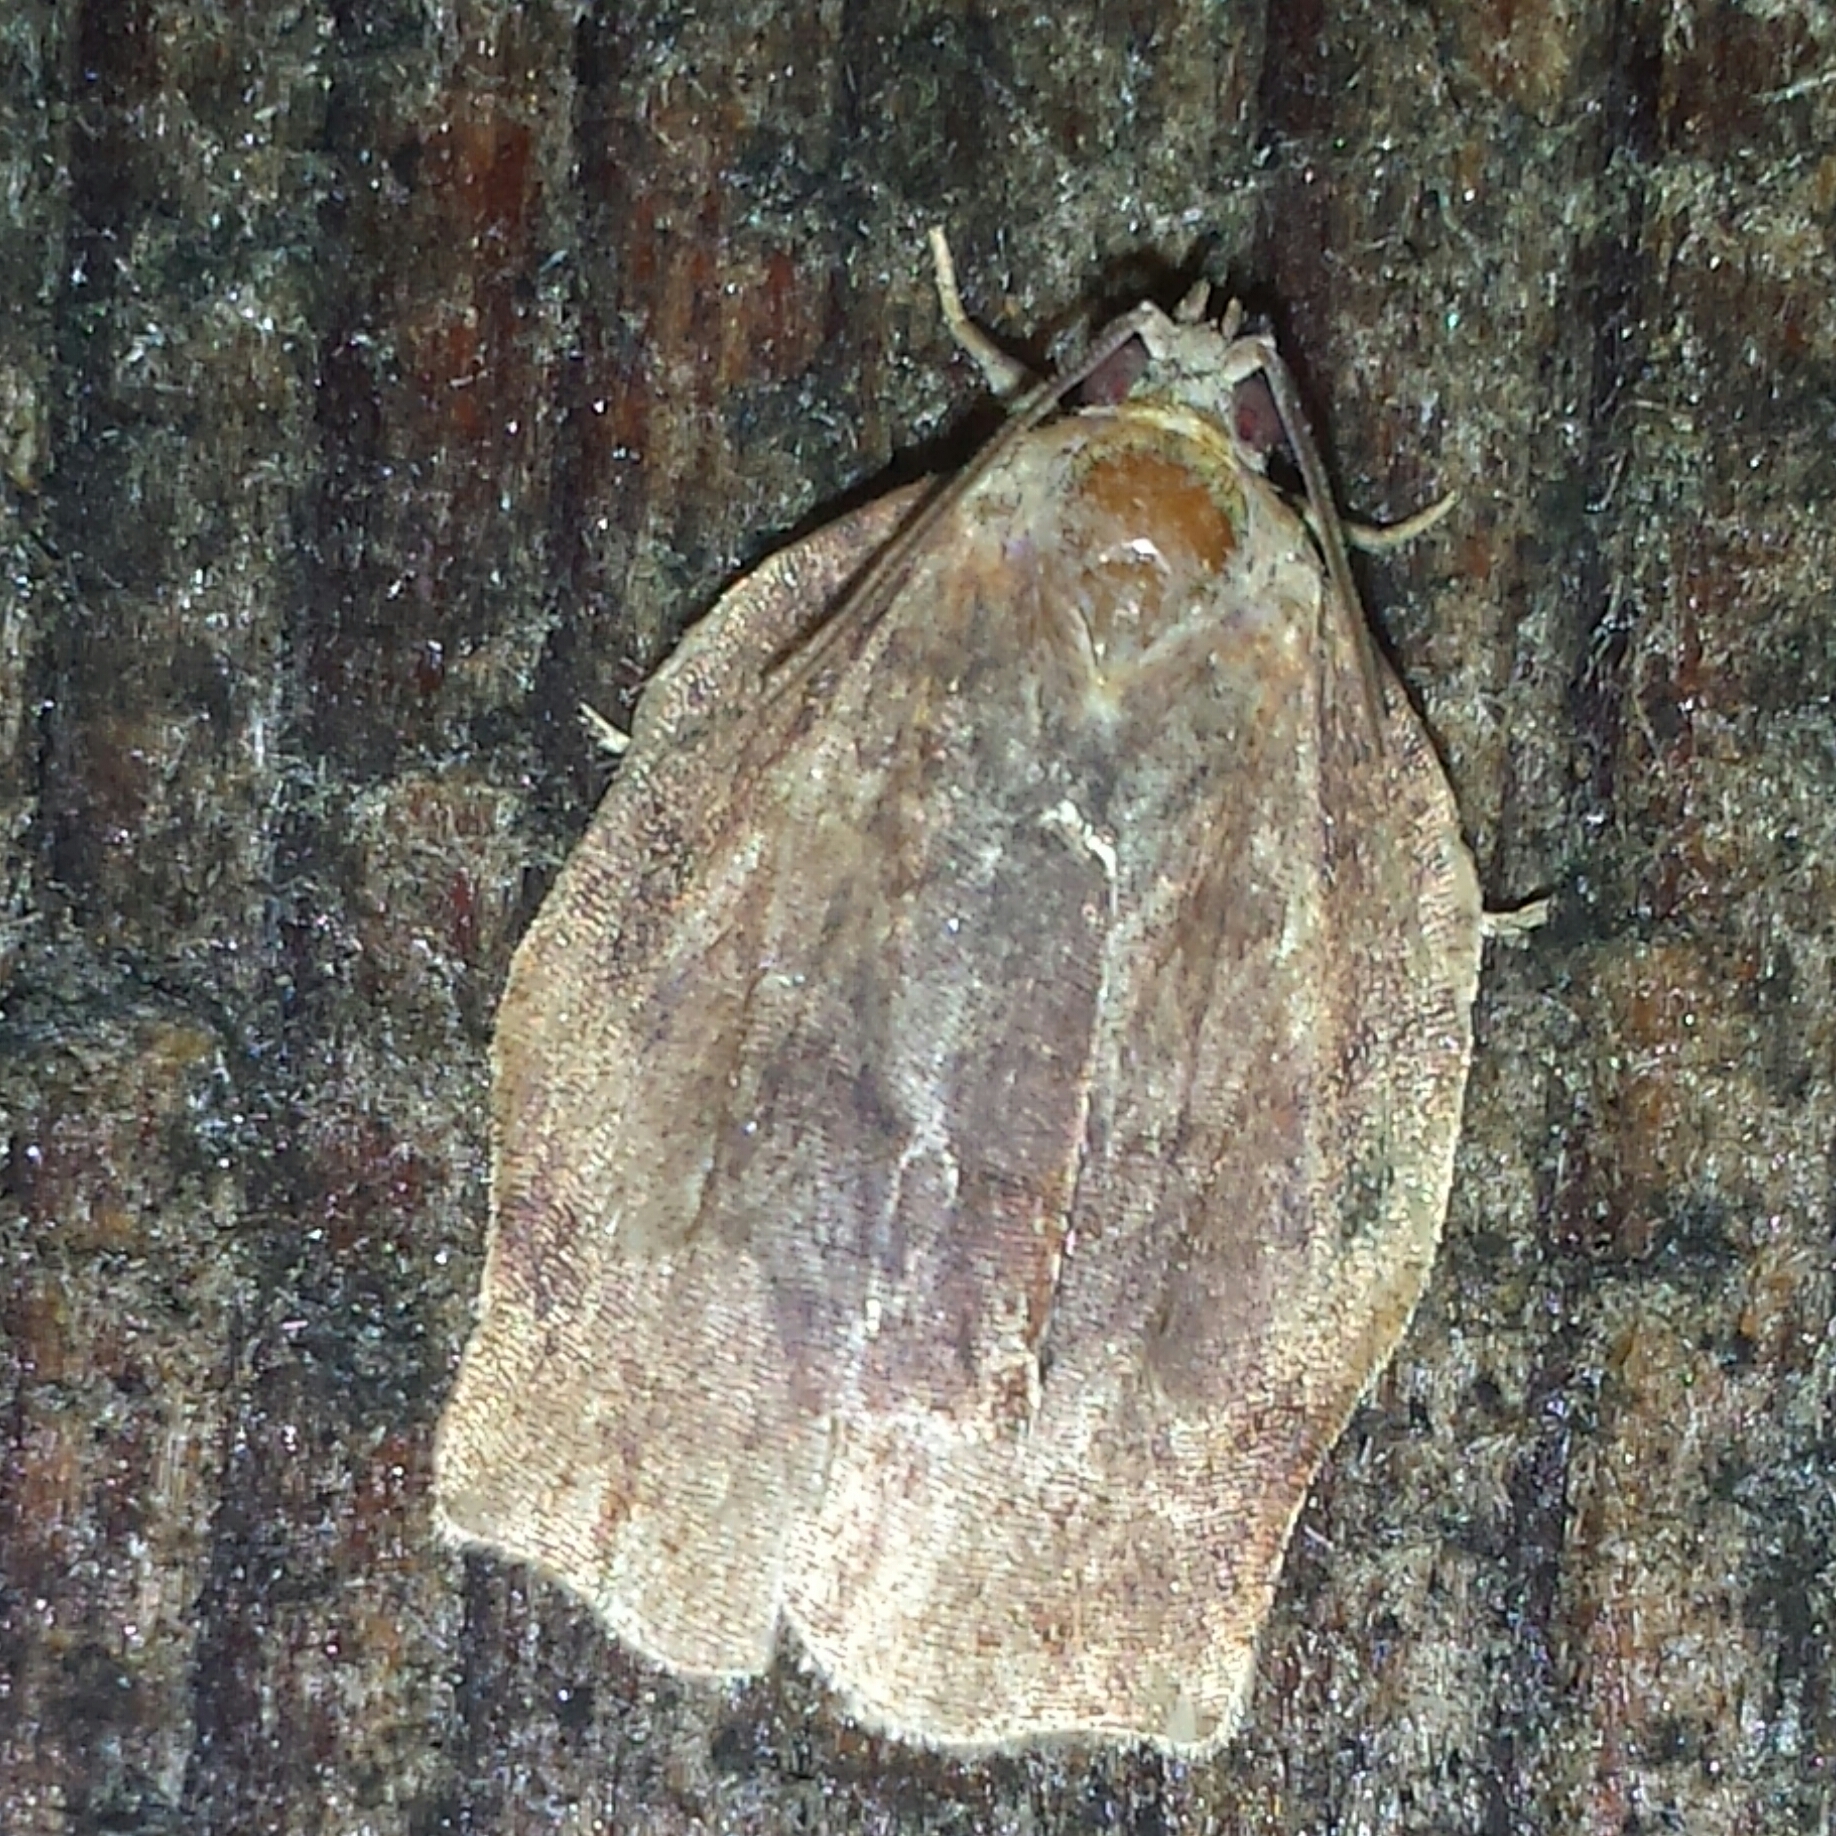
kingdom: Animalia
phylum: Arthropoda
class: Insecta
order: Lepidoptera
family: Tortricidae
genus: Archips
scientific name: Archips purpurana
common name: Omnivorous leafroller
